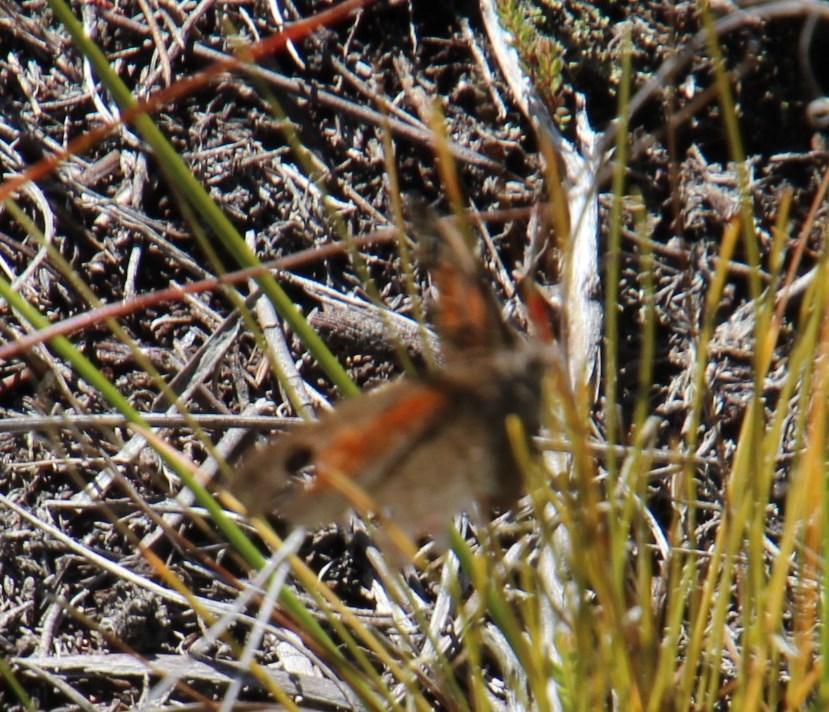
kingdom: Animalia
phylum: Arthropoda
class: Insecta
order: Lepidoptera
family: Nymphalidae
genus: Pseudonympha
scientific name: Pseudonympha detecta
